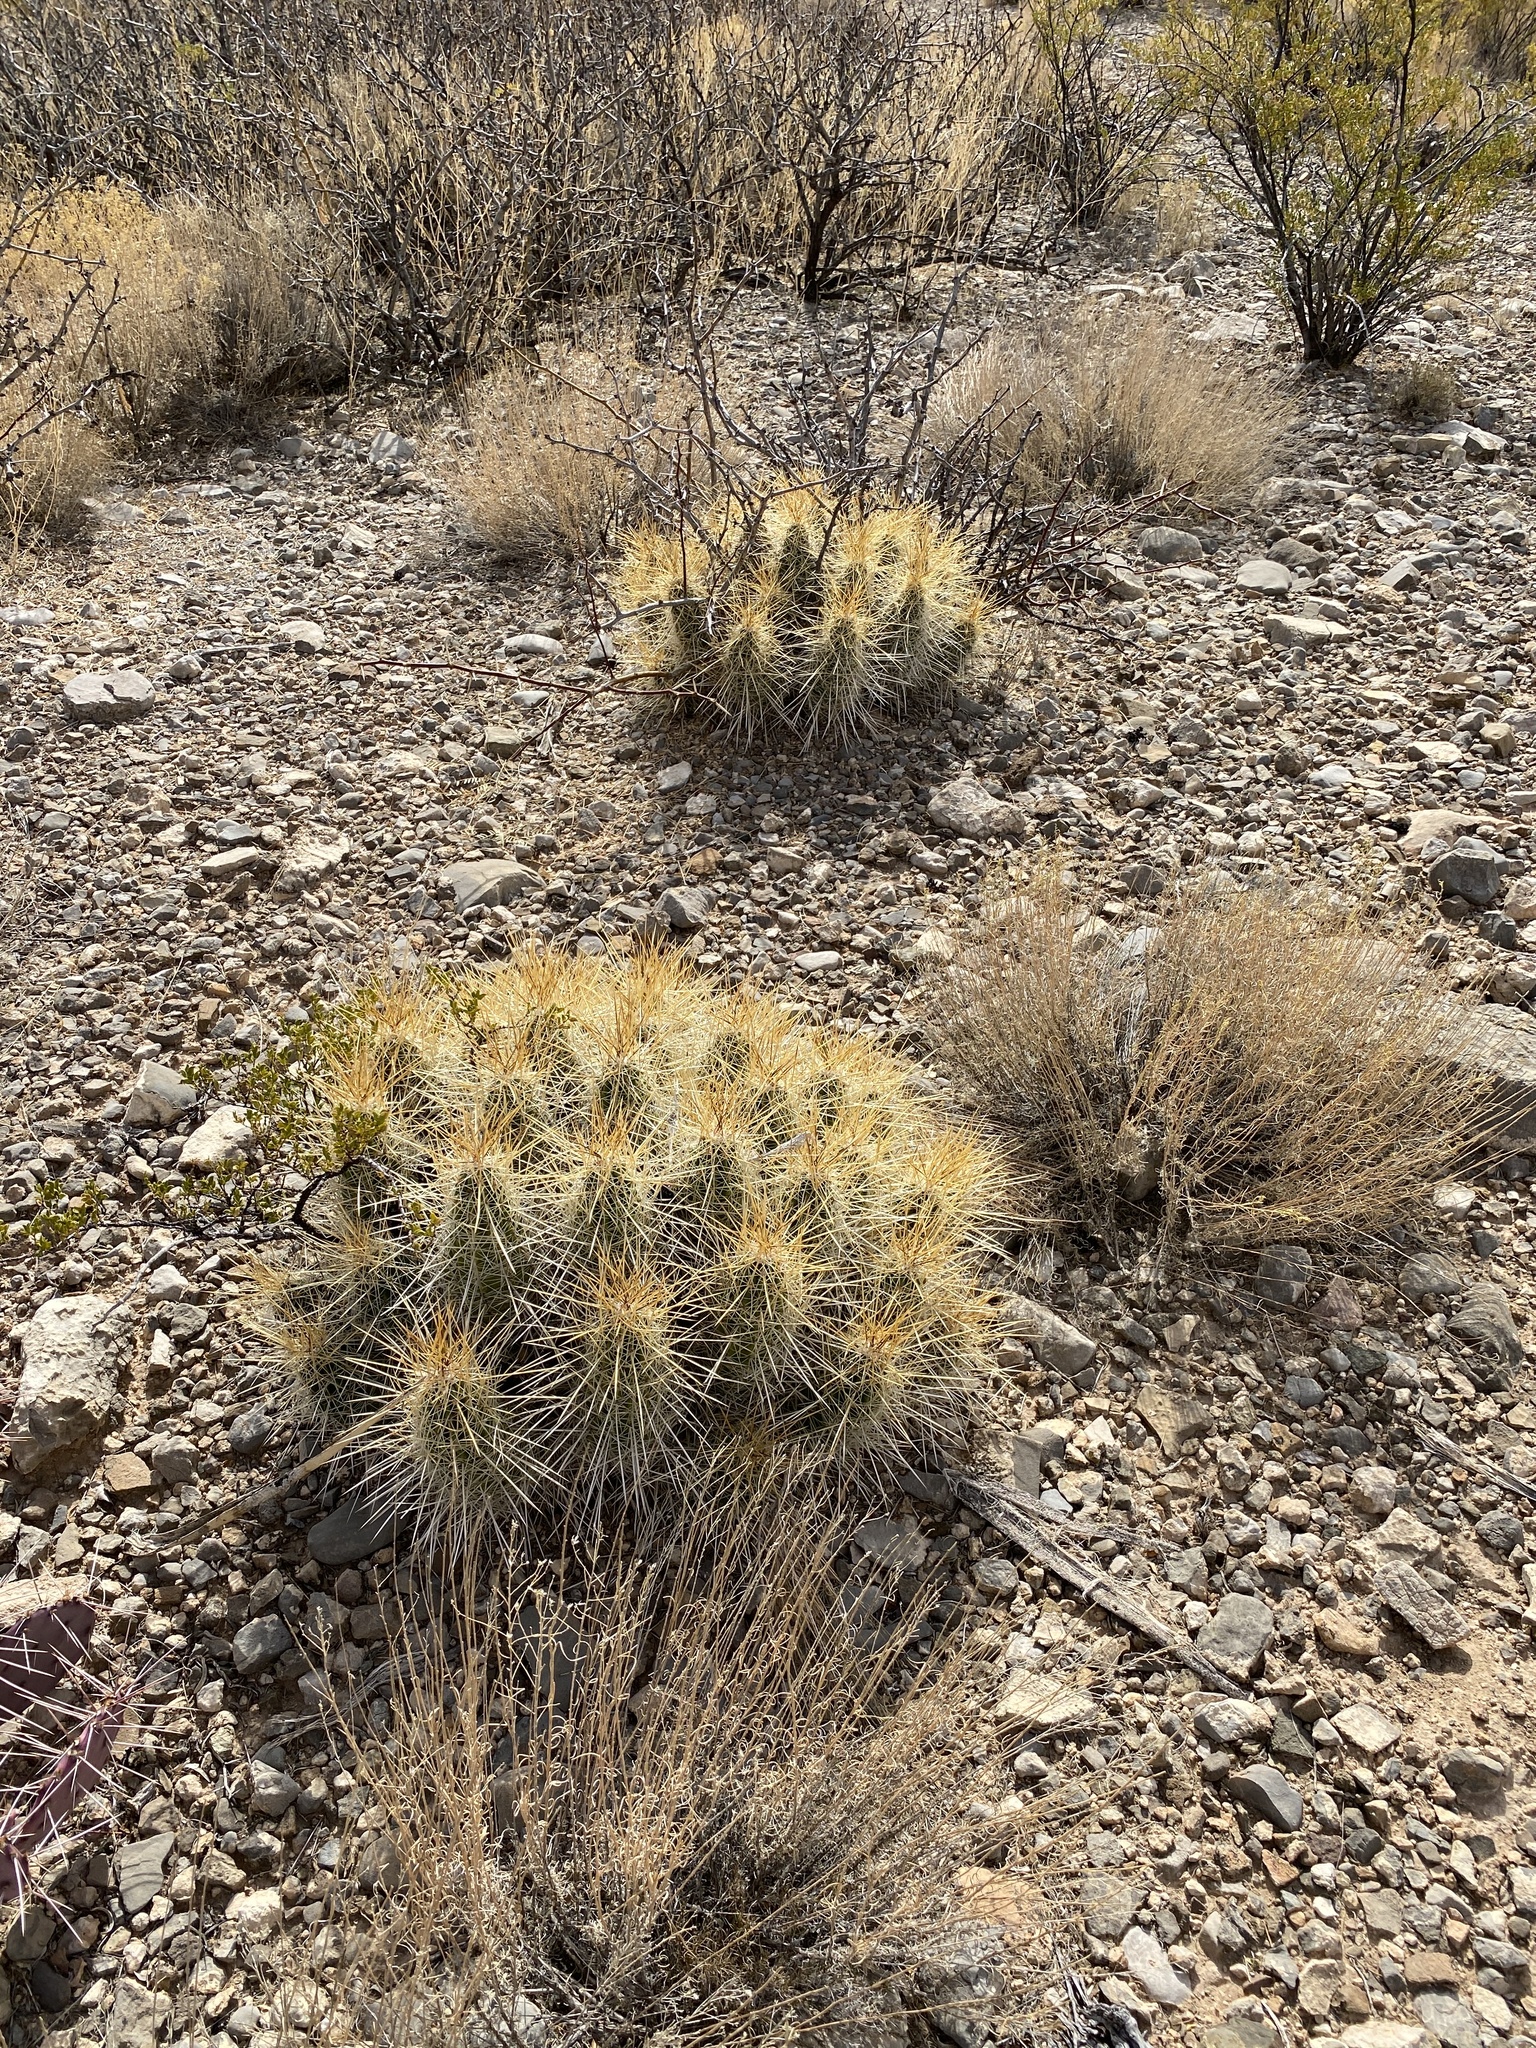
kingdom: Plantae
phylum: Tracheophyta
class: Magnoliopsida
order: Caryophyllales
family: Cactaceae
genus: Echinocereus
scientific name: Echinocereus stramineus
